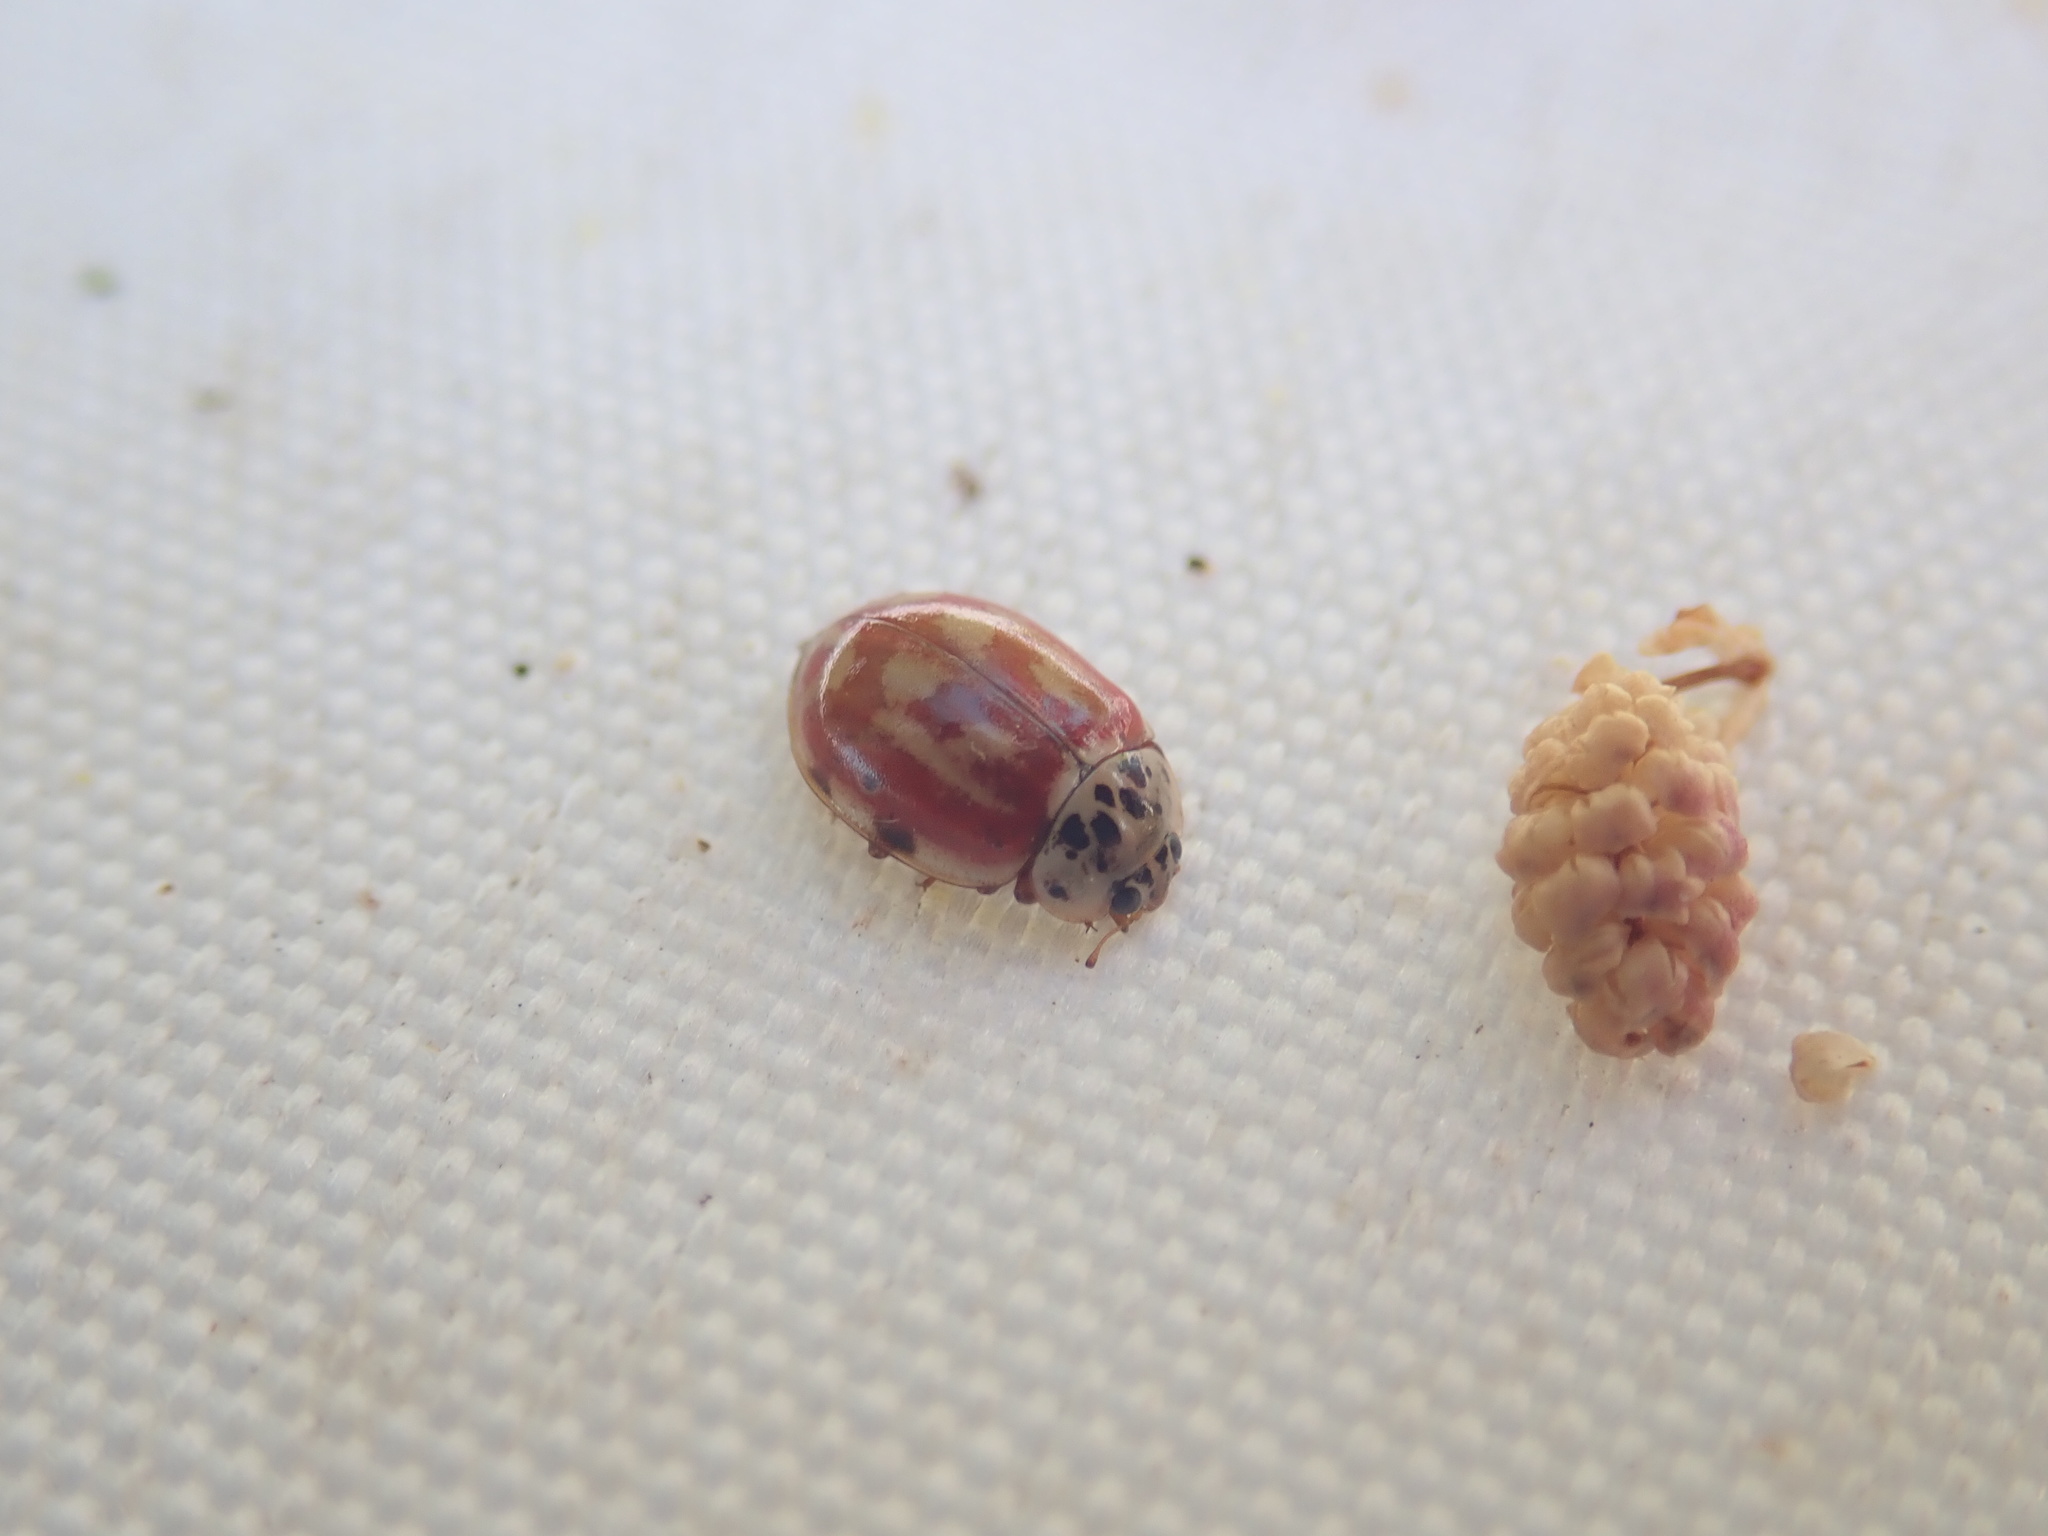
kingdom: Animalia
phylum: Arthropoda
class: Insecta
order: Coleoptera
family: Coccinellidae
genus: Harmonia
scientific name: Harmonia quadripunctata
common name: Cream-streaked ladybird
